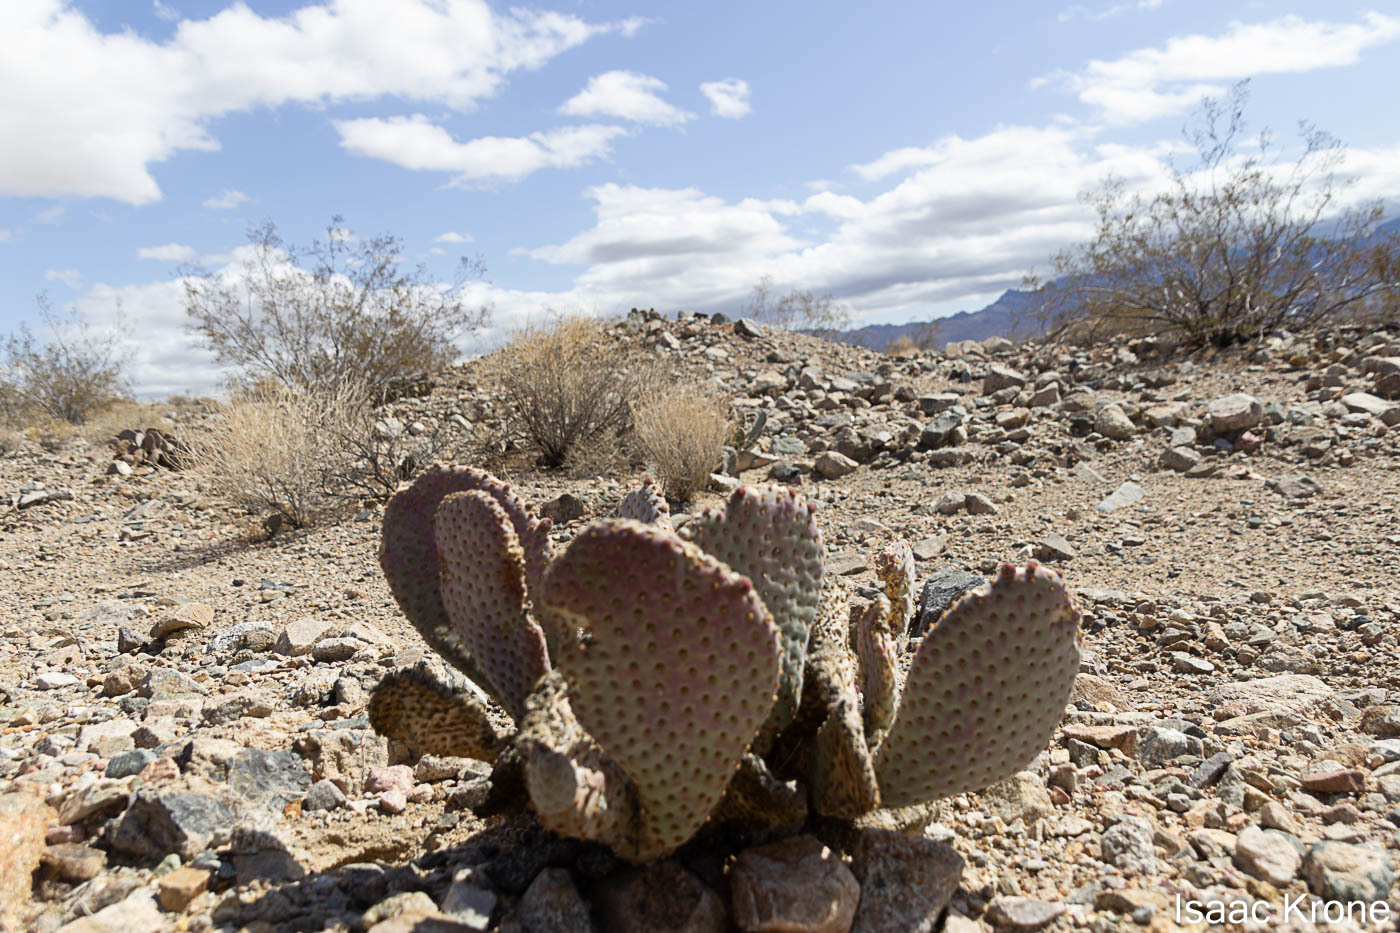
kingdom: Plantae
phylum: Tracheophyta
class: Magnoliopsida
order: Caryophyllales
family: Cactaceae
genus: Opuntia
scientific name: Opuntia basilaris
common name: Beavertail prickly-pear
